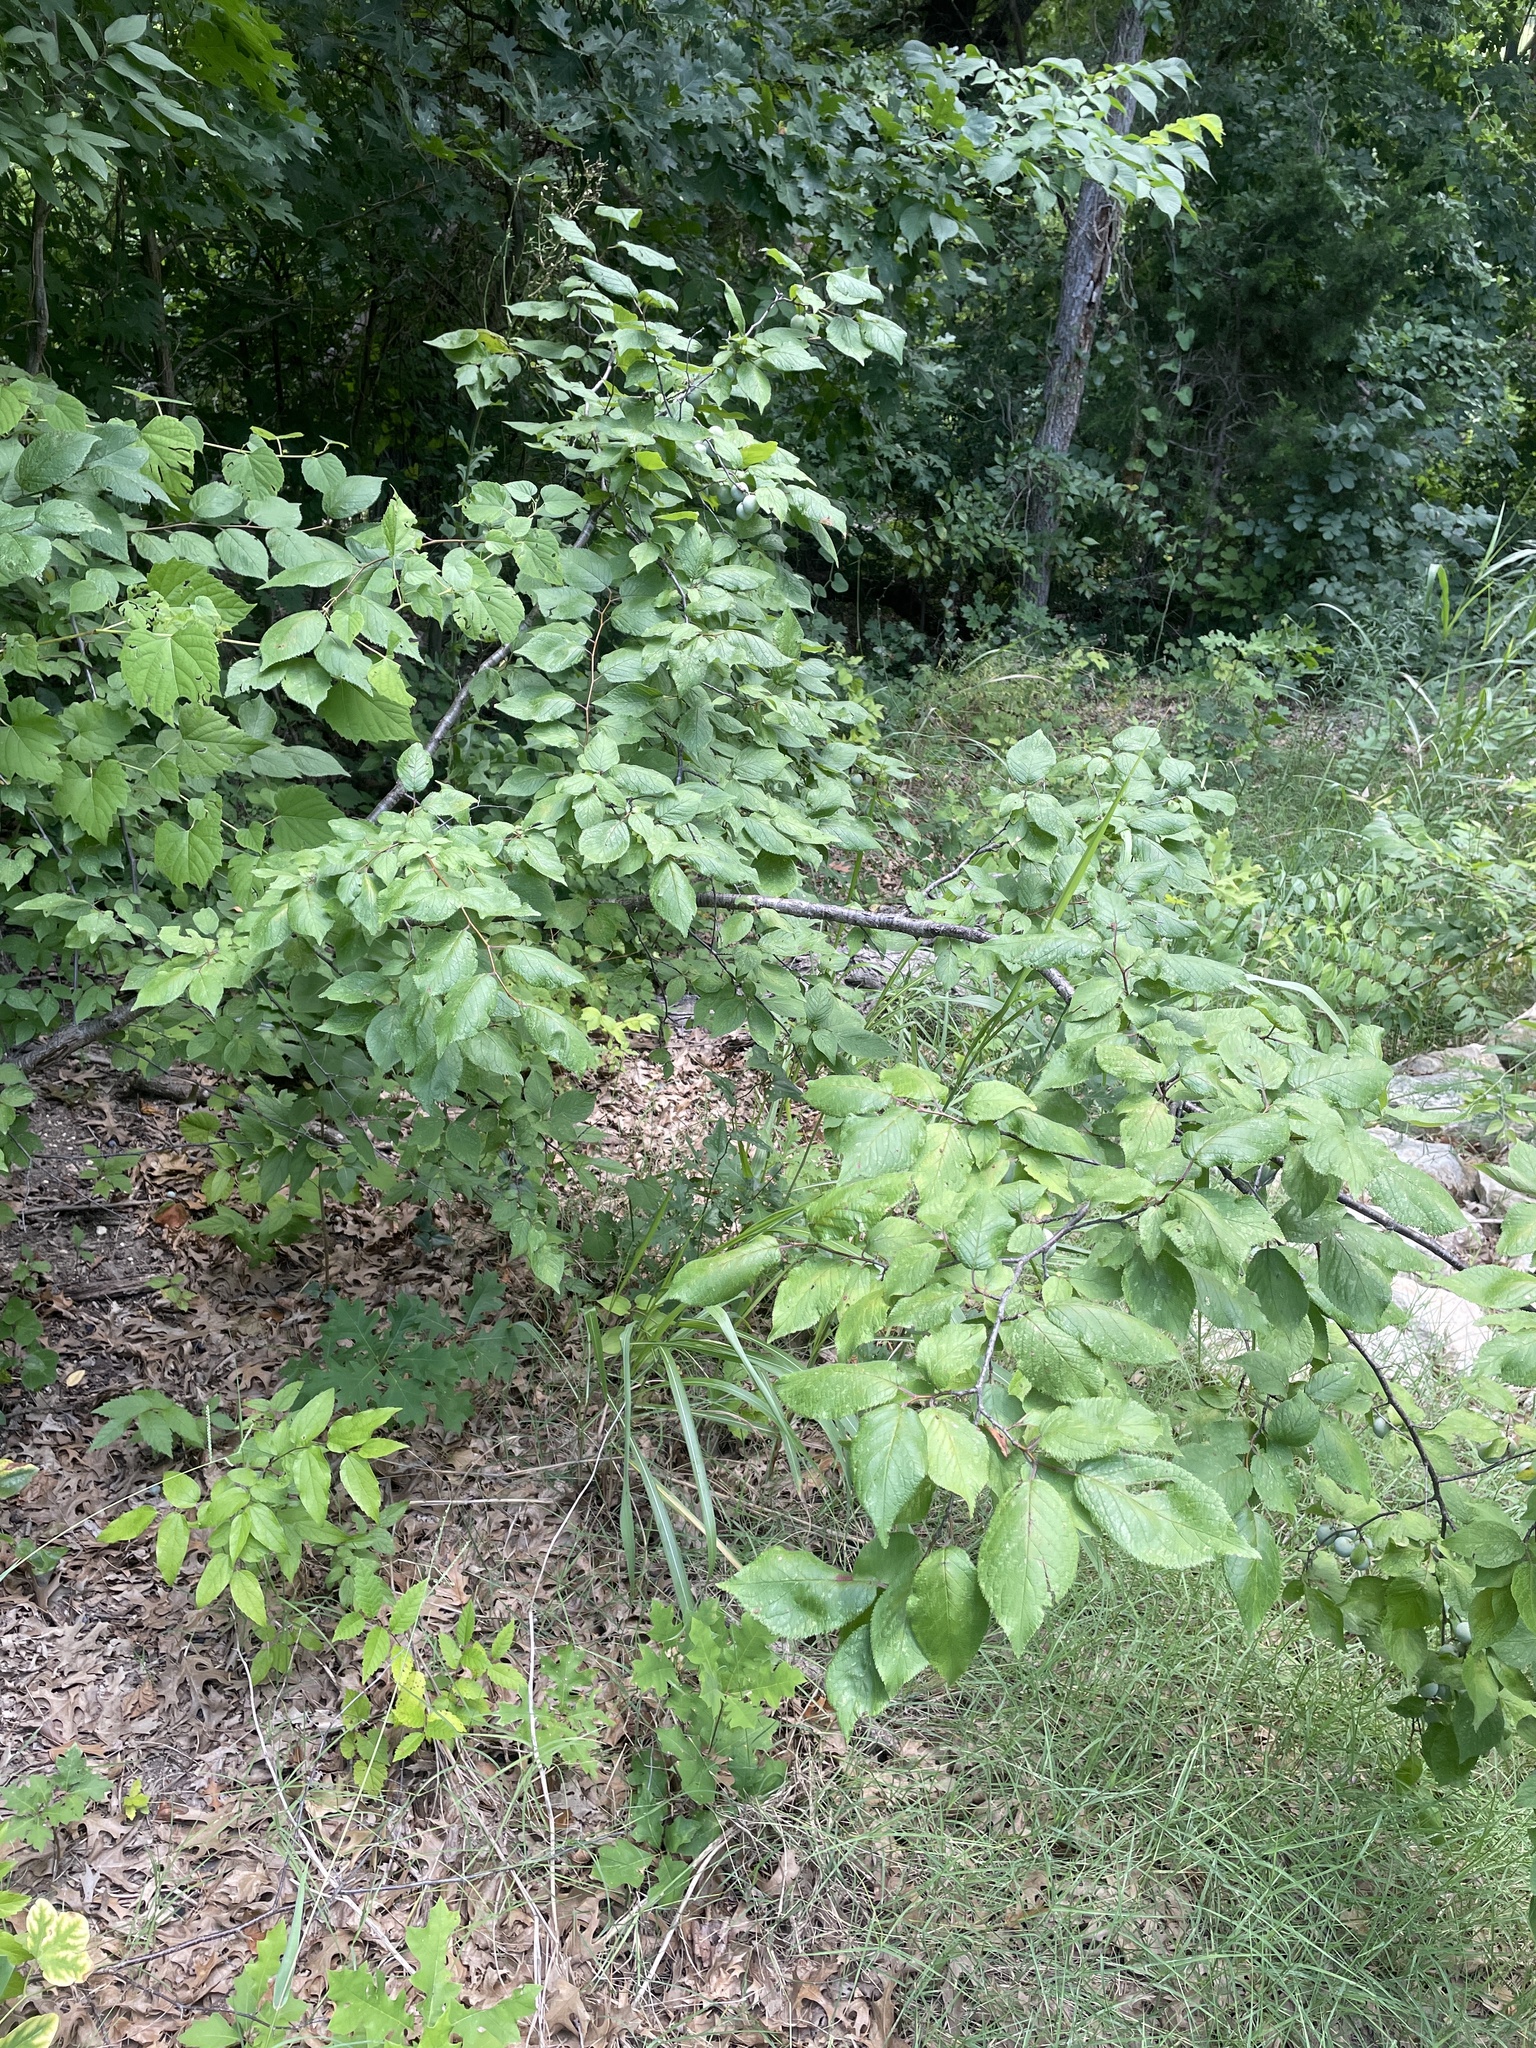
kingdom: Plantae
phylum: Tracheophyta
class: Magnoliopsida
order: Rosales
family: Rosaceae
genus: Prunus
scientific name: Prunus mexicana
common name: Mexican plum
